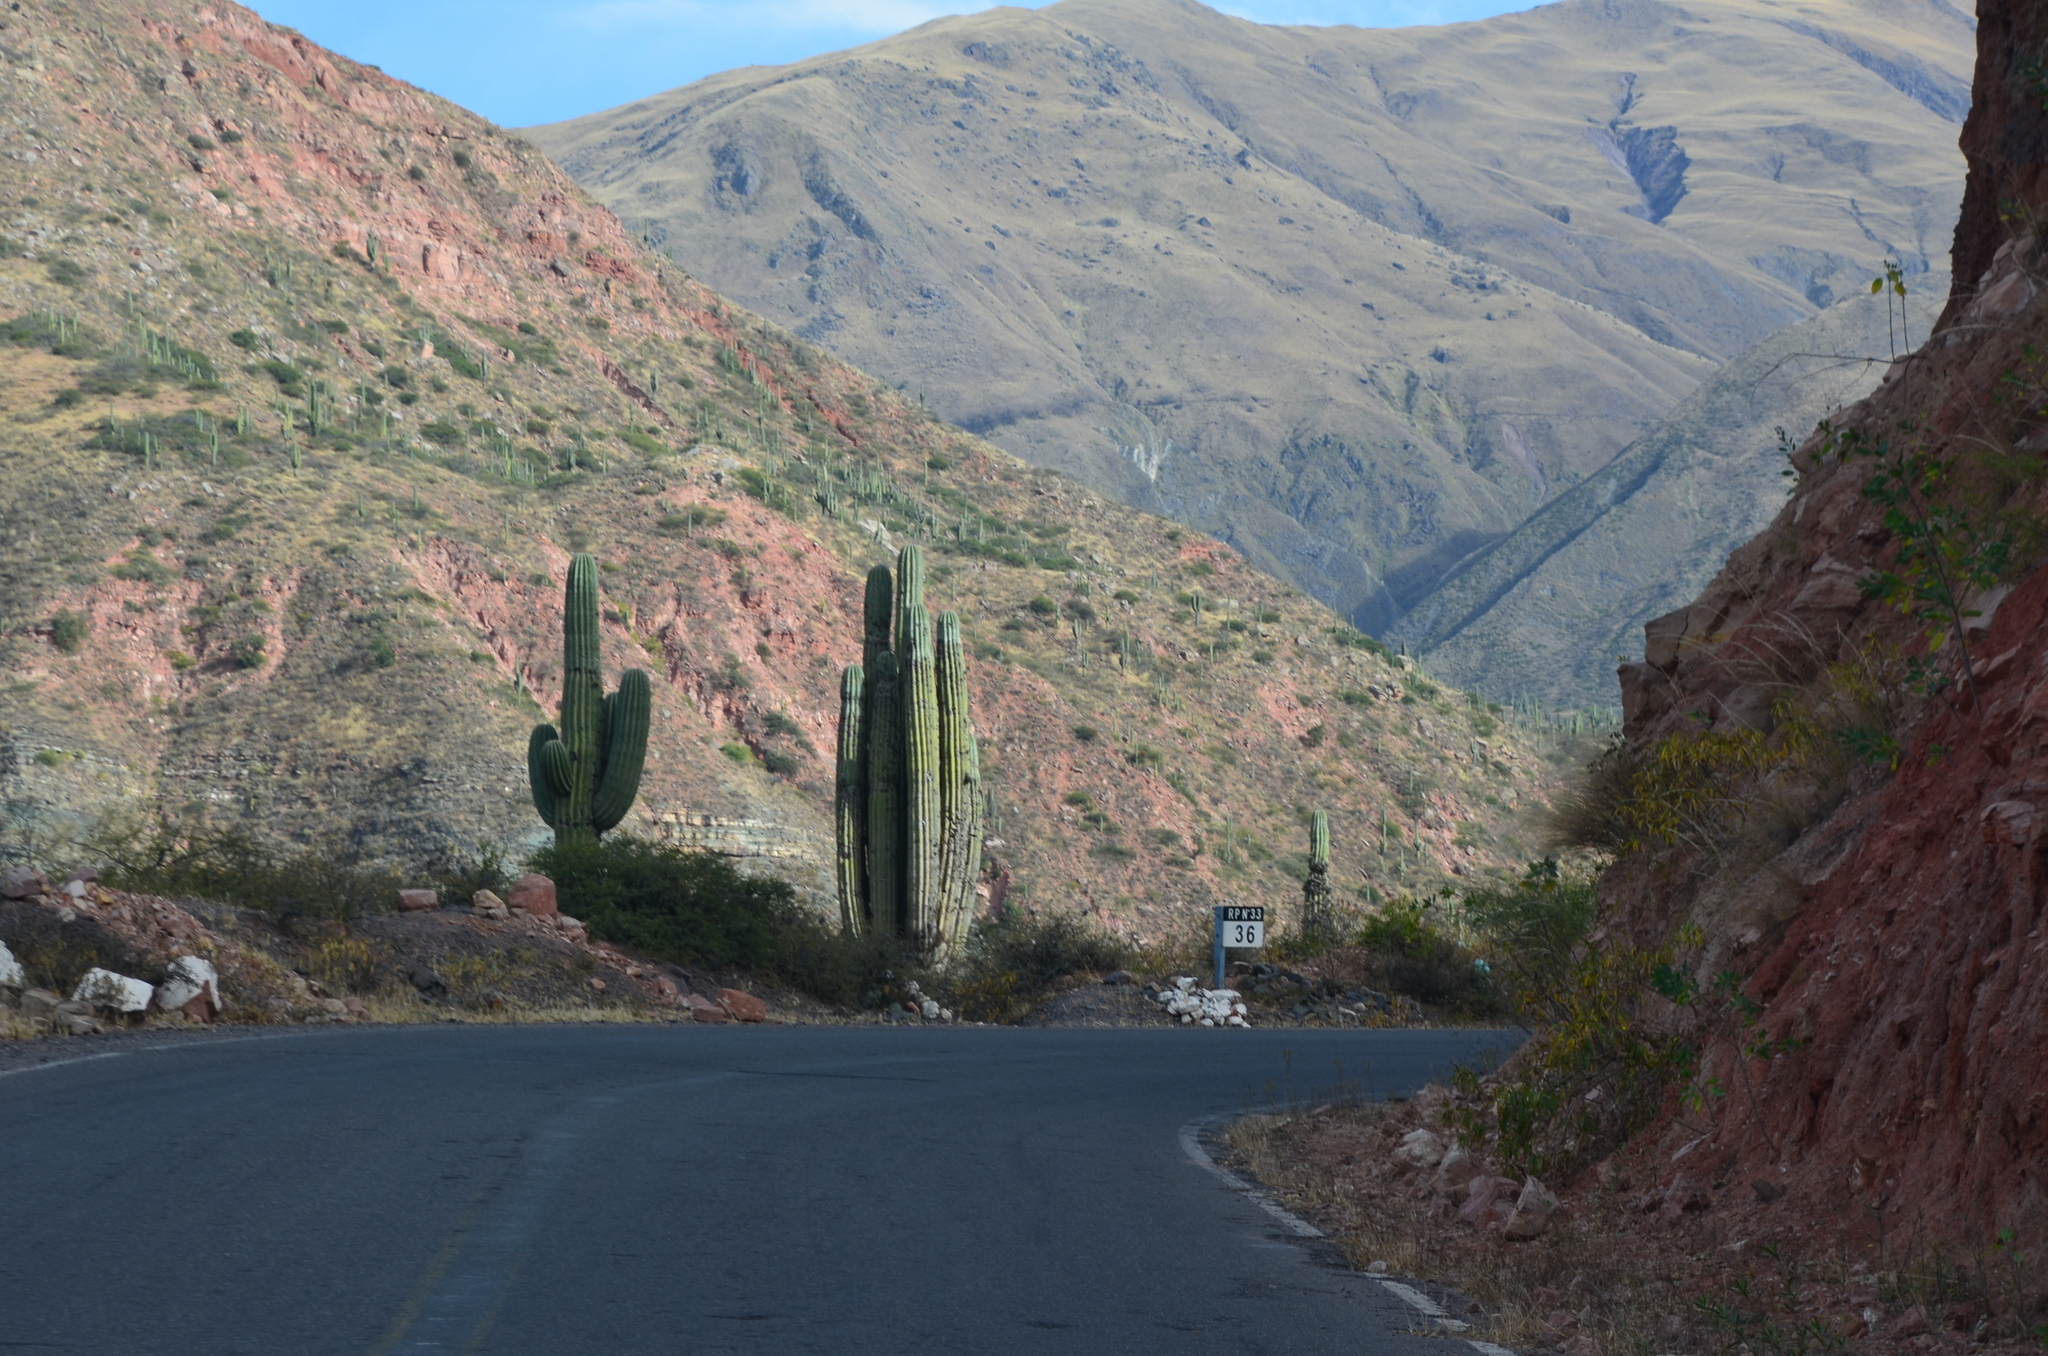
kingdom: Plantae
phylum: Tracheophyta
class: Magnoliopsida
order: Caryophyllales
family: Cactaceae
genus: Leucostele
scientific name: Leucostele terscheckii
